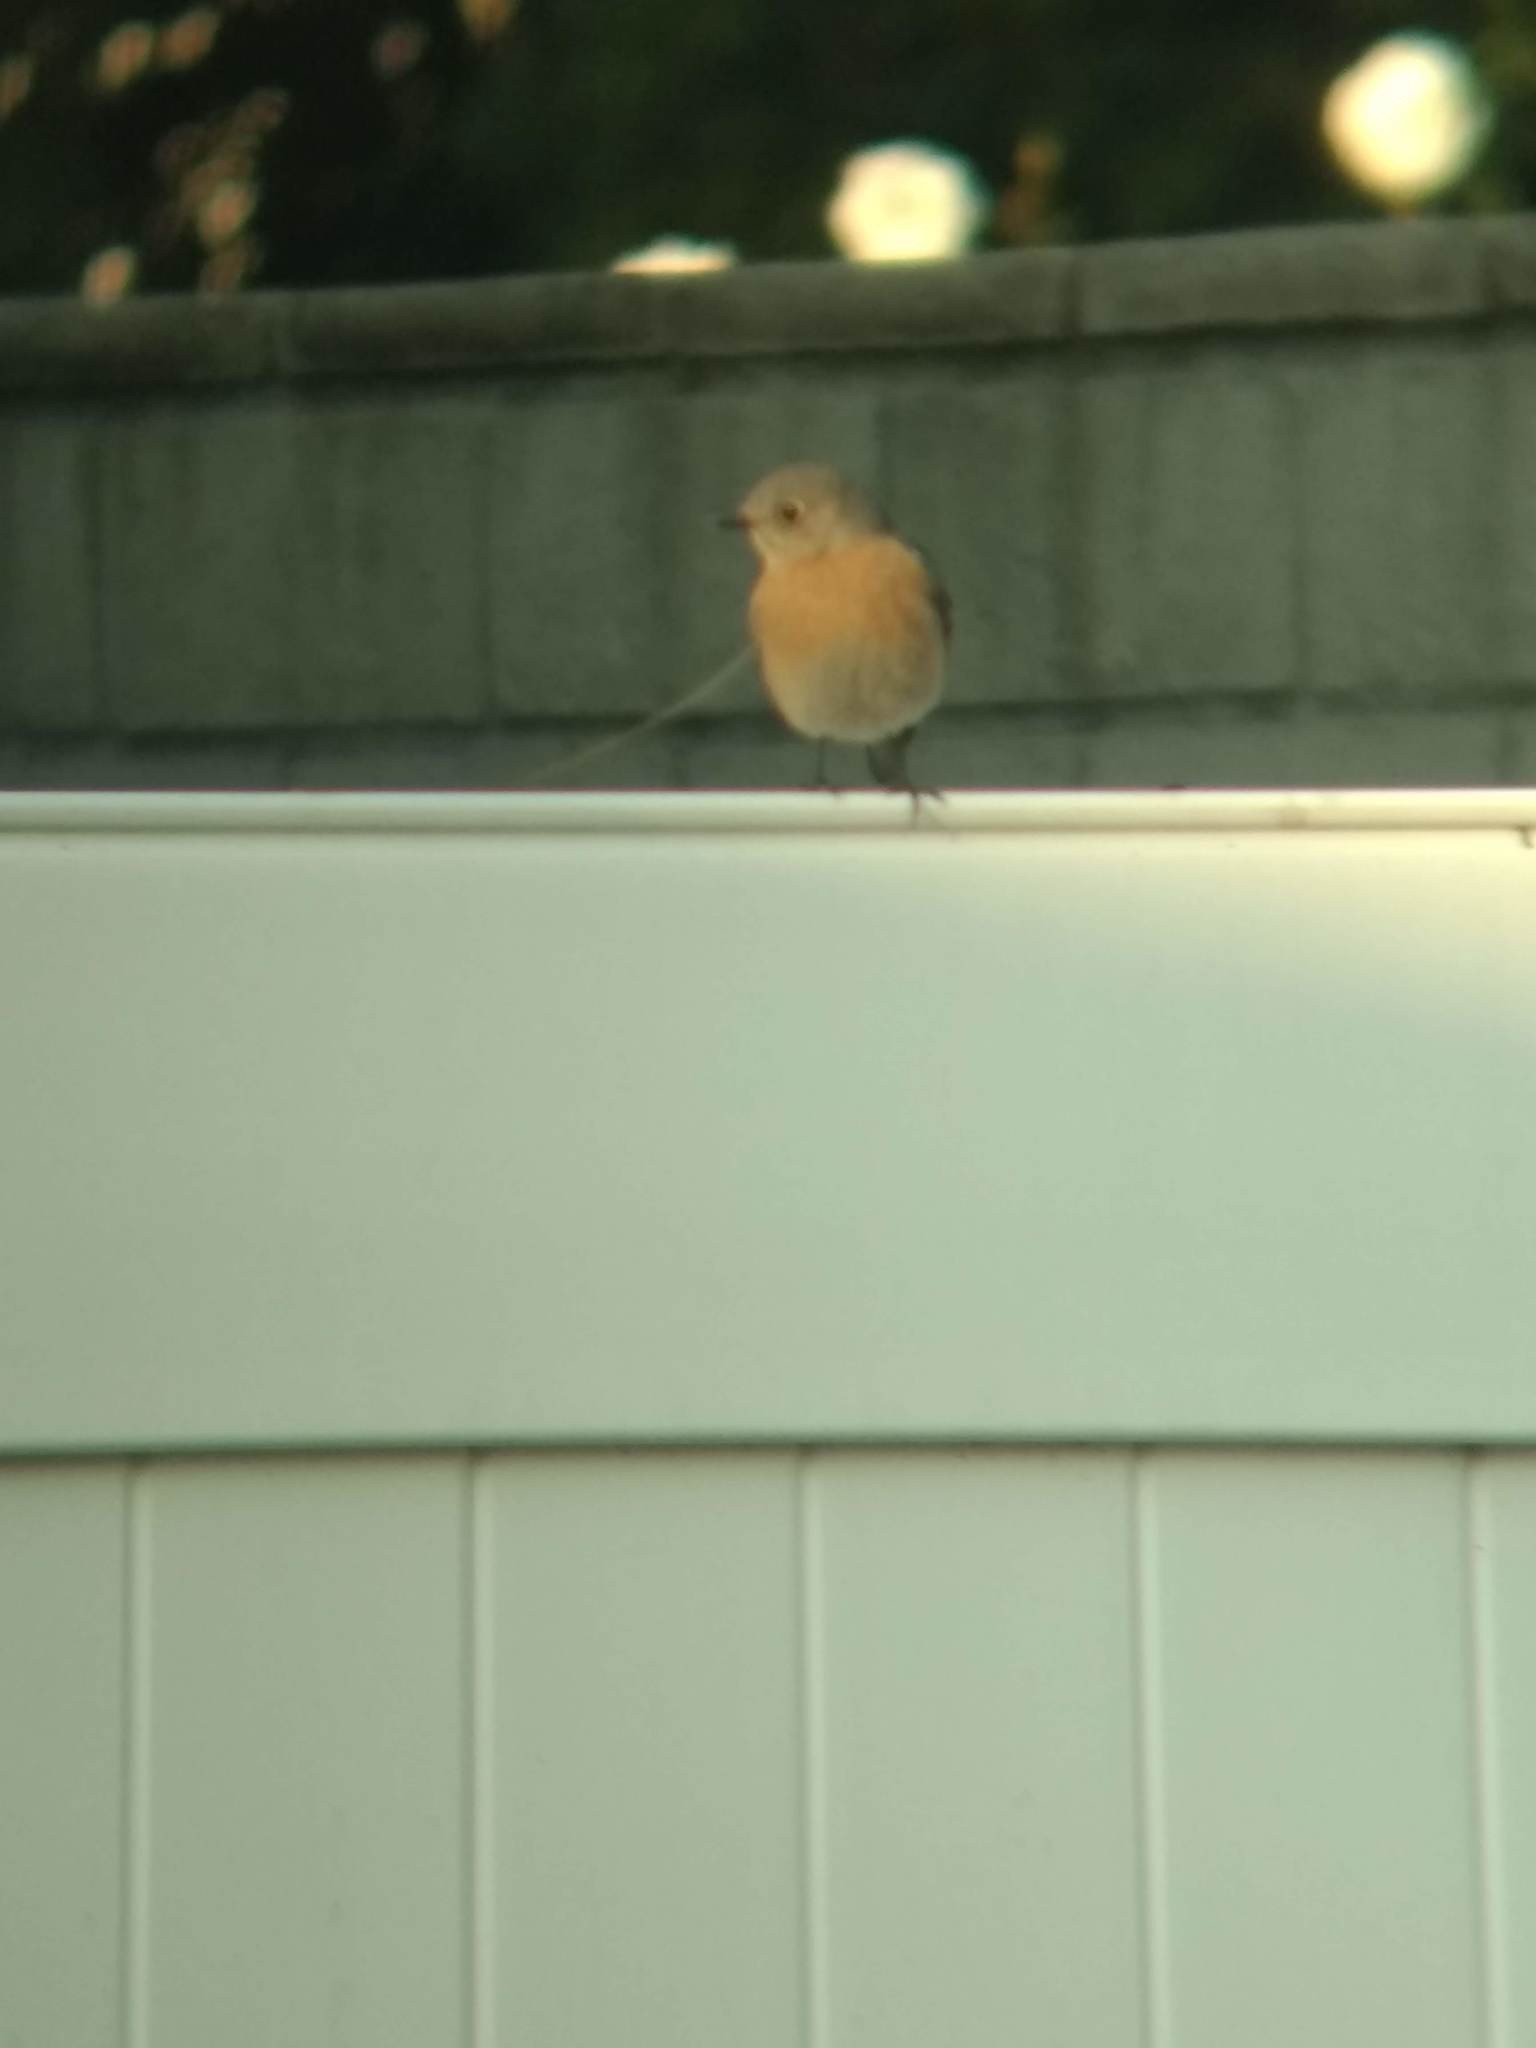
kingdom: Animalia
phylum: Chordata
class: Aves
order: Passeriformes
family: Turdidae
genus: Sialia
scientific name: Sialia mexicana
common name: Western bluebird
